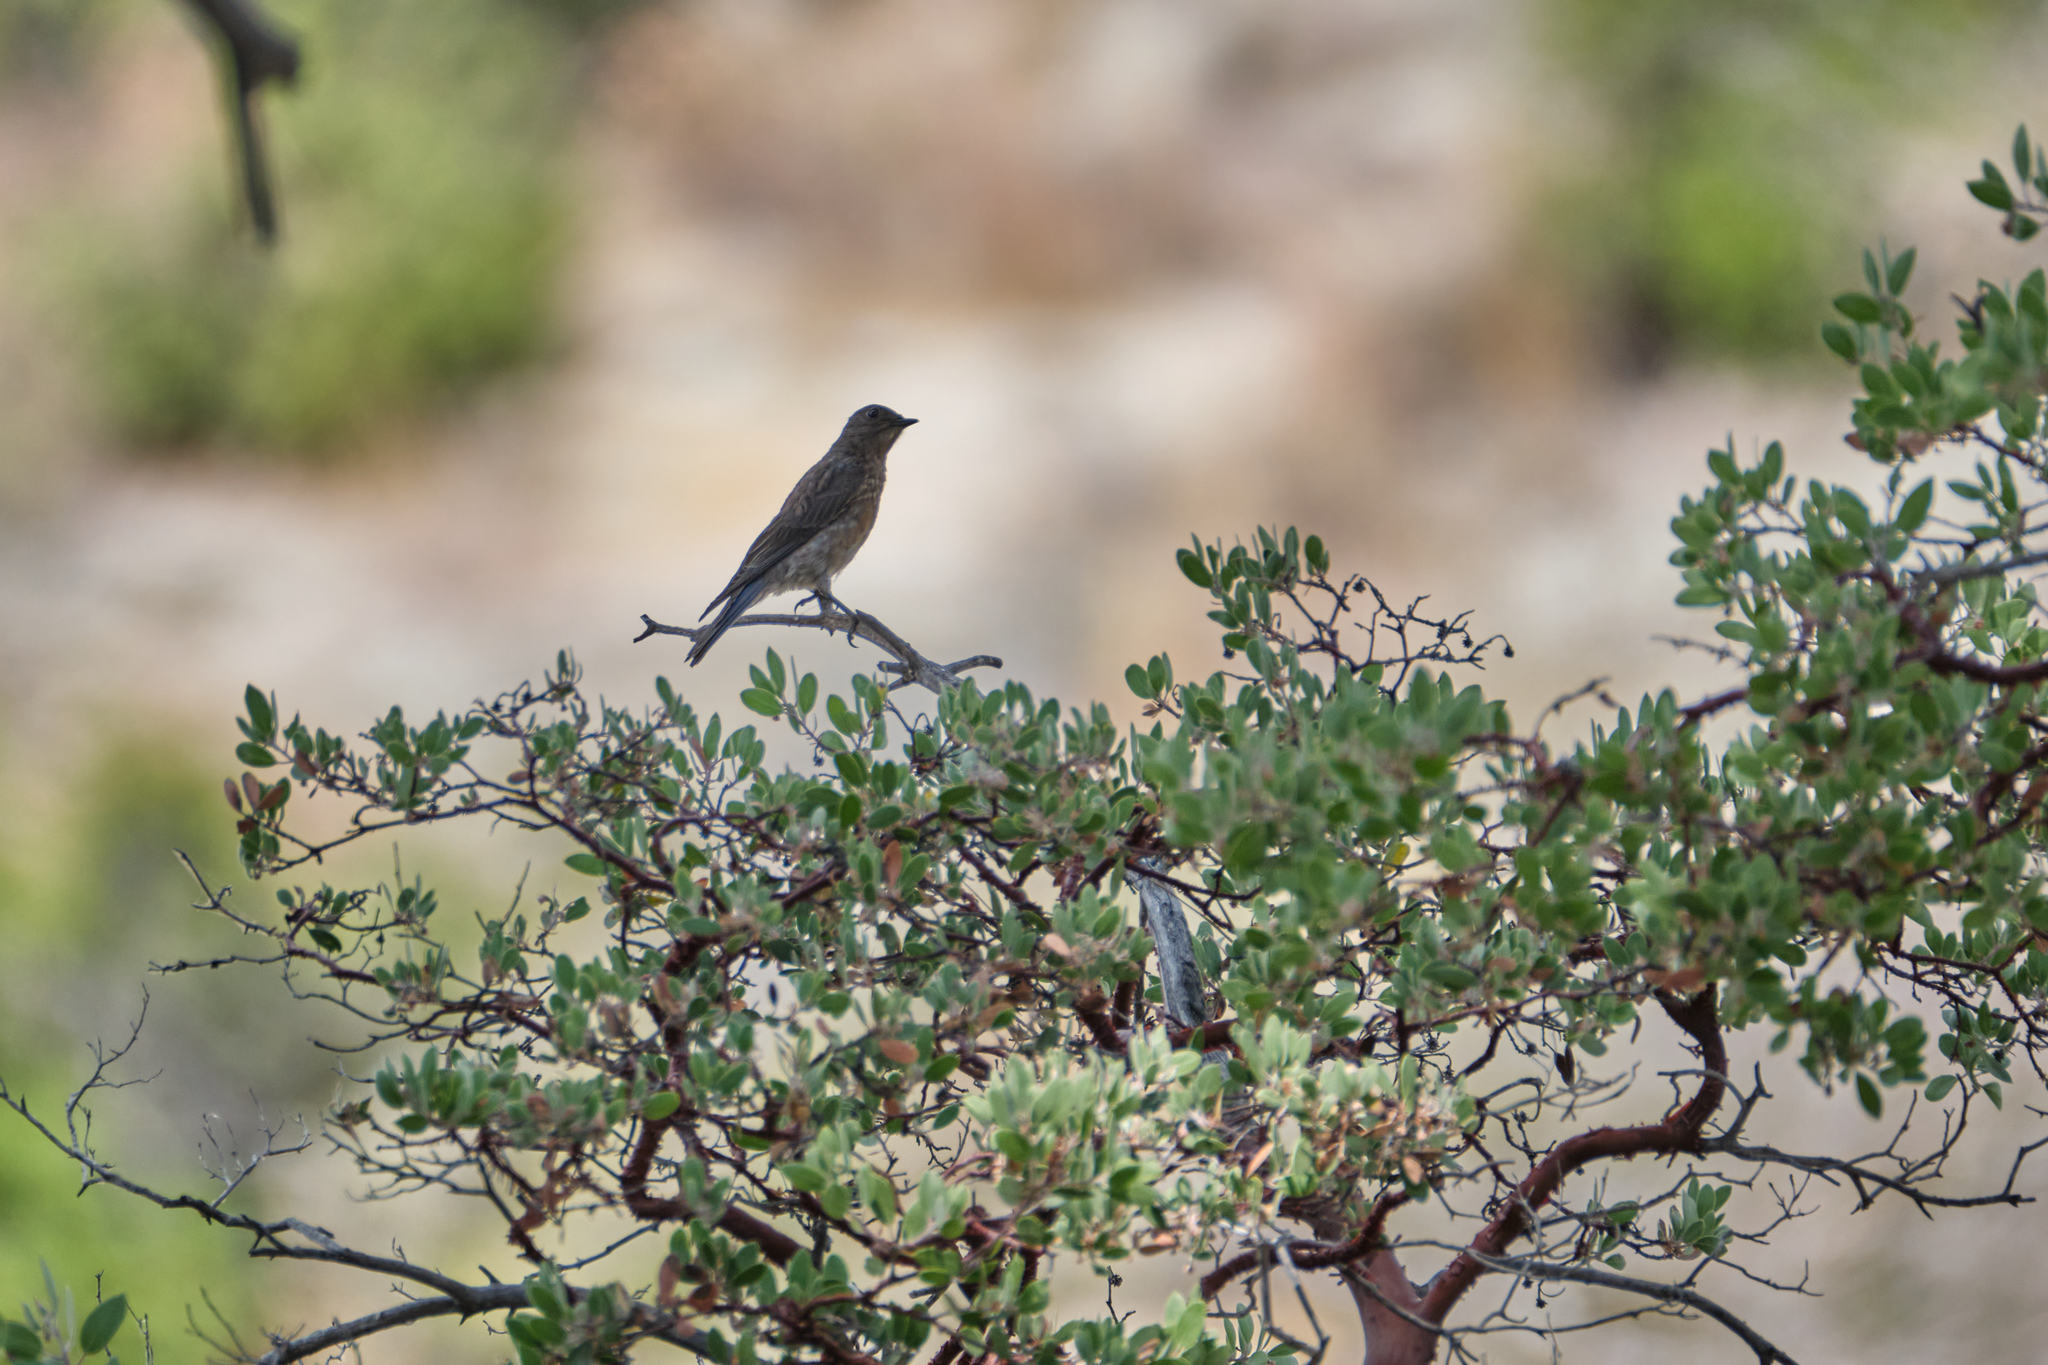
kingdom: Animalia
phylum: Chordata
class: Aves
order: Passeriformes
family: Turdidae
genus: Sialia
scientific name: Sialia mexicana
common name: Western bluebird
